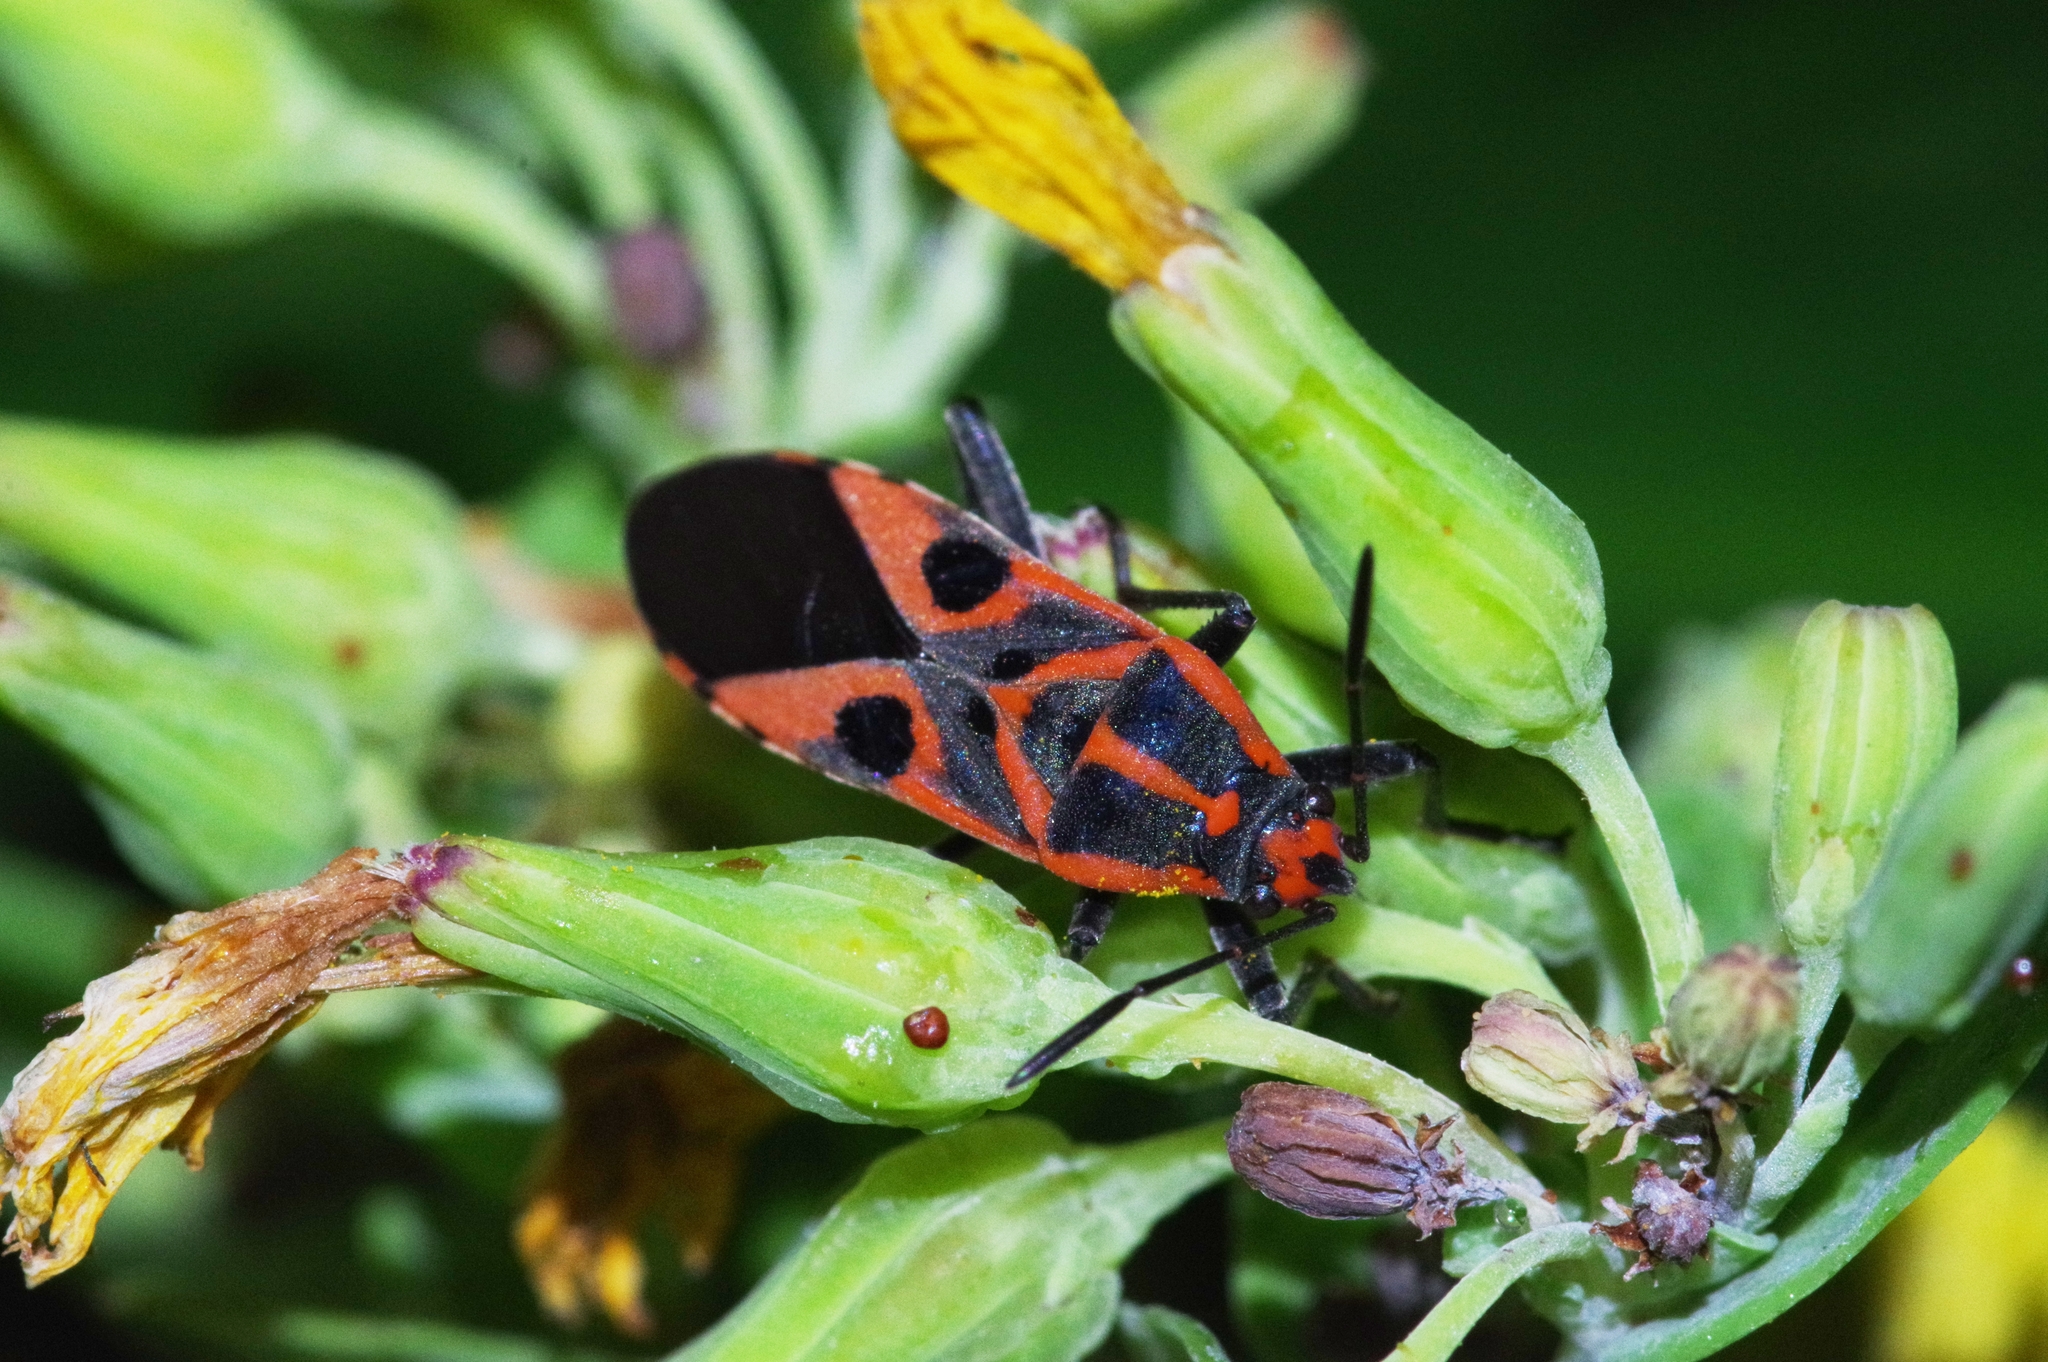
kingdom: Animalia
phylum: Arthropoda
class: Insecta
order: Hemiptera
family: Lygaeidae
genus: Spilostethus
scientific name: Spilostethus hospes
